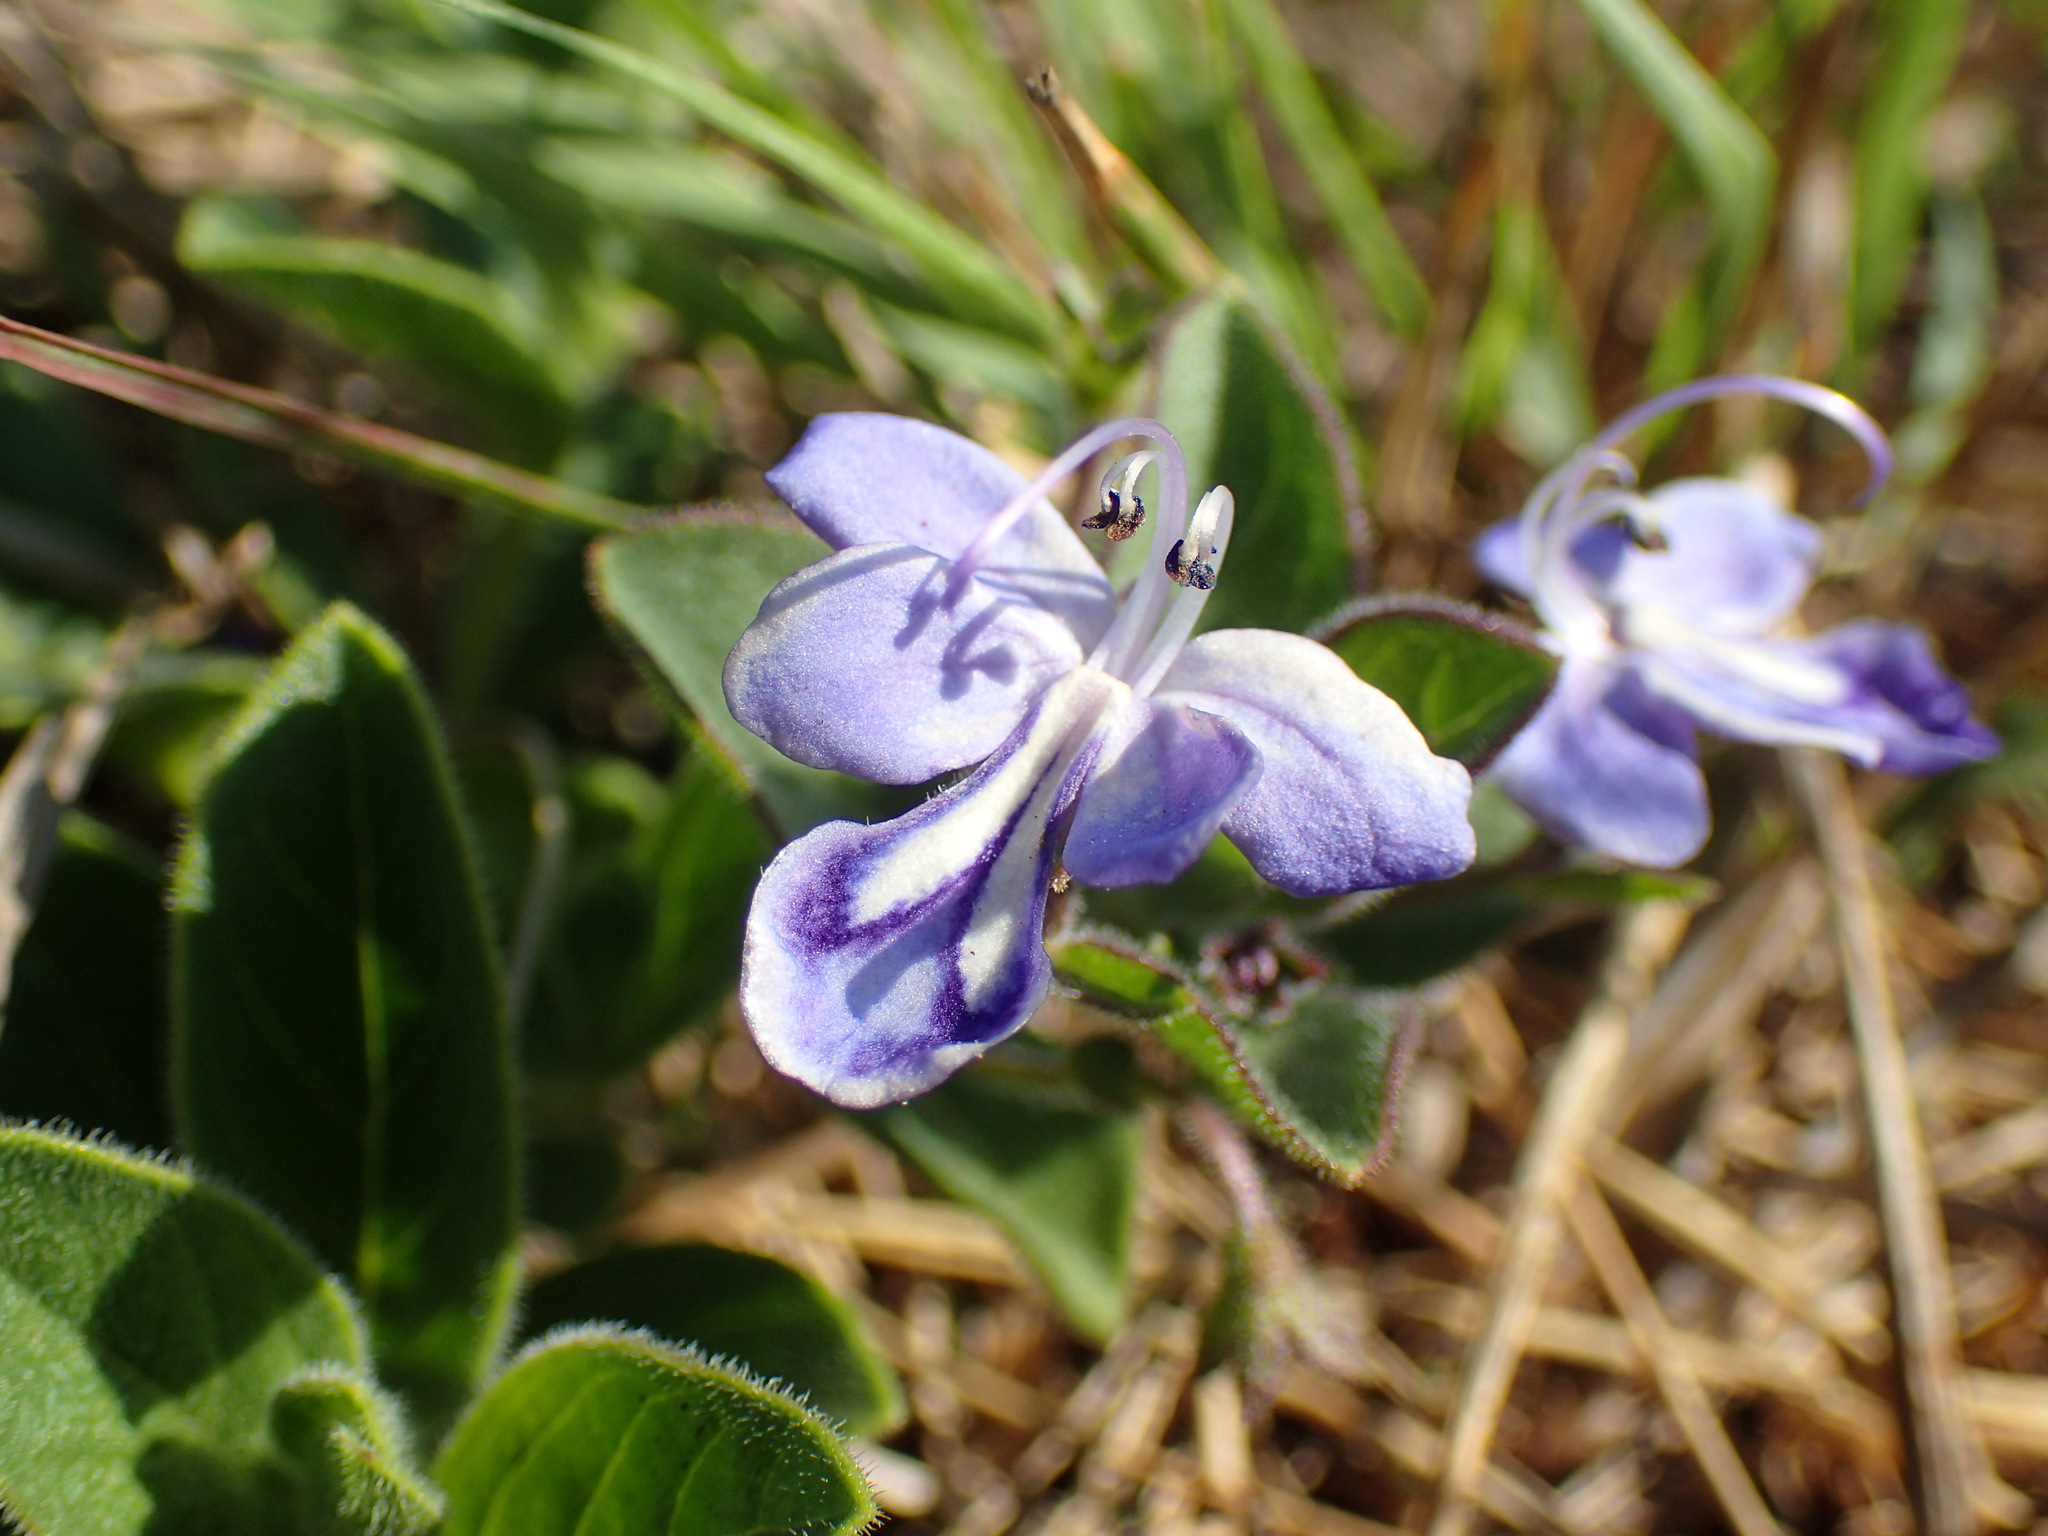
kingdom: Plantae
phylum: Tracheophyta
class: Magnoliopsida
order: Lamiales
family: Lamiaceae
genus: Rotheca
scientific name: Rotheca hirsuta
